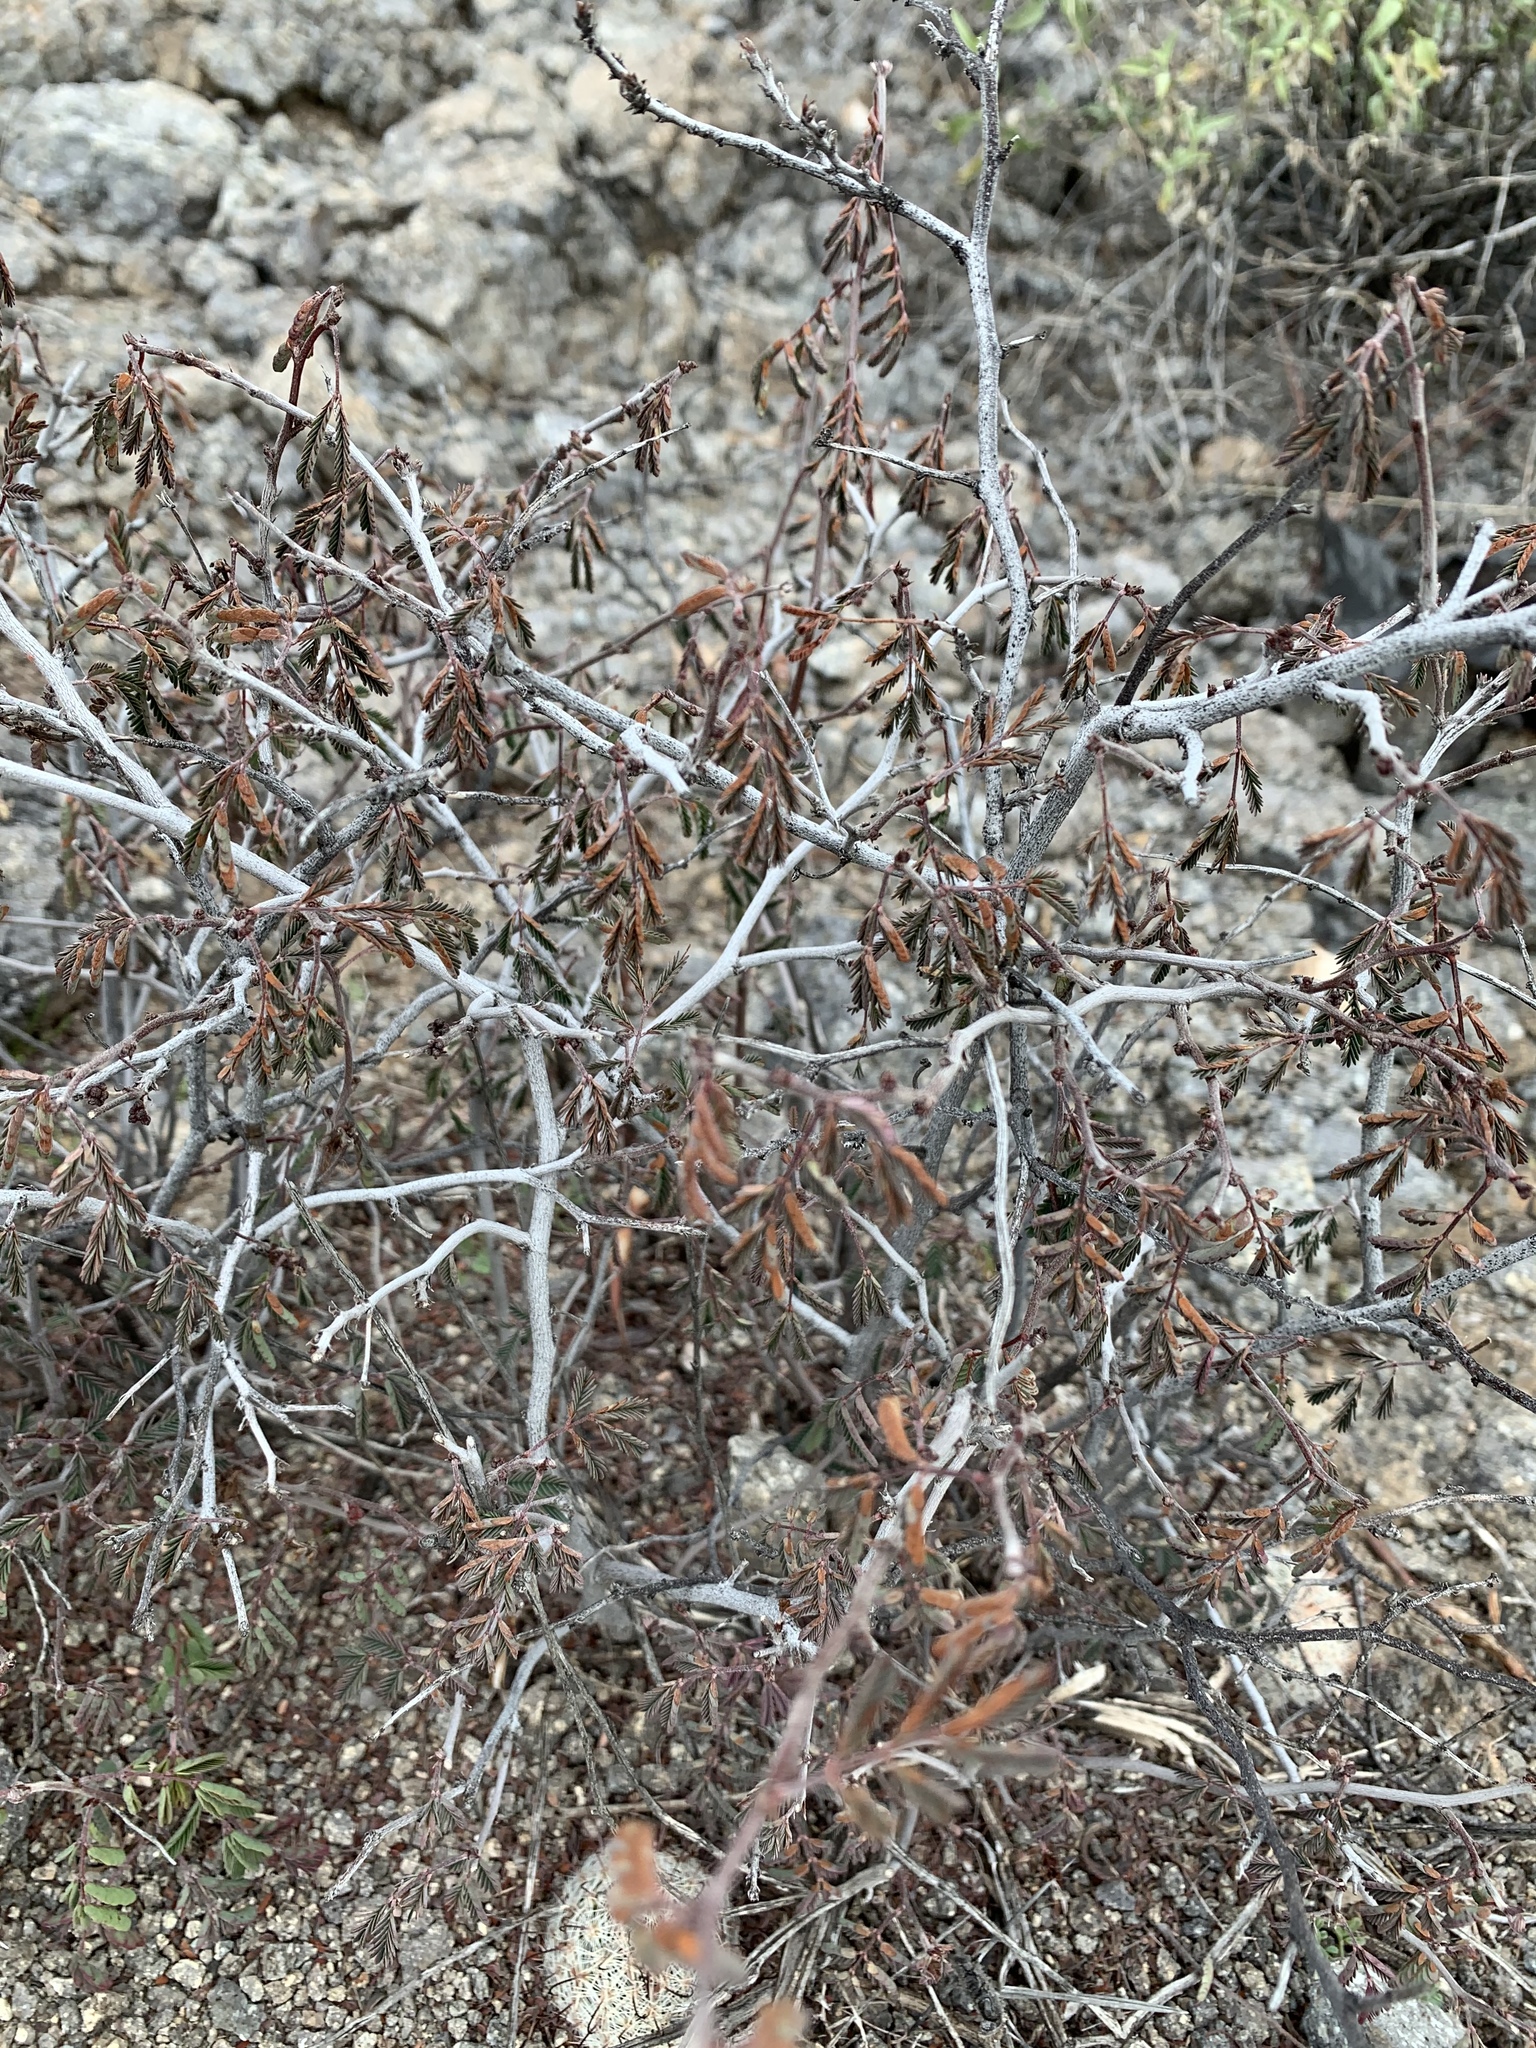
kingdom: Plantae
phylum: Tracheophyta
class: Magnoliopsida
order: Fabales
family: Fabaceae
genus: Calliandra
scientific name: Calliandra eriophylla
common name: Fairy-duster
